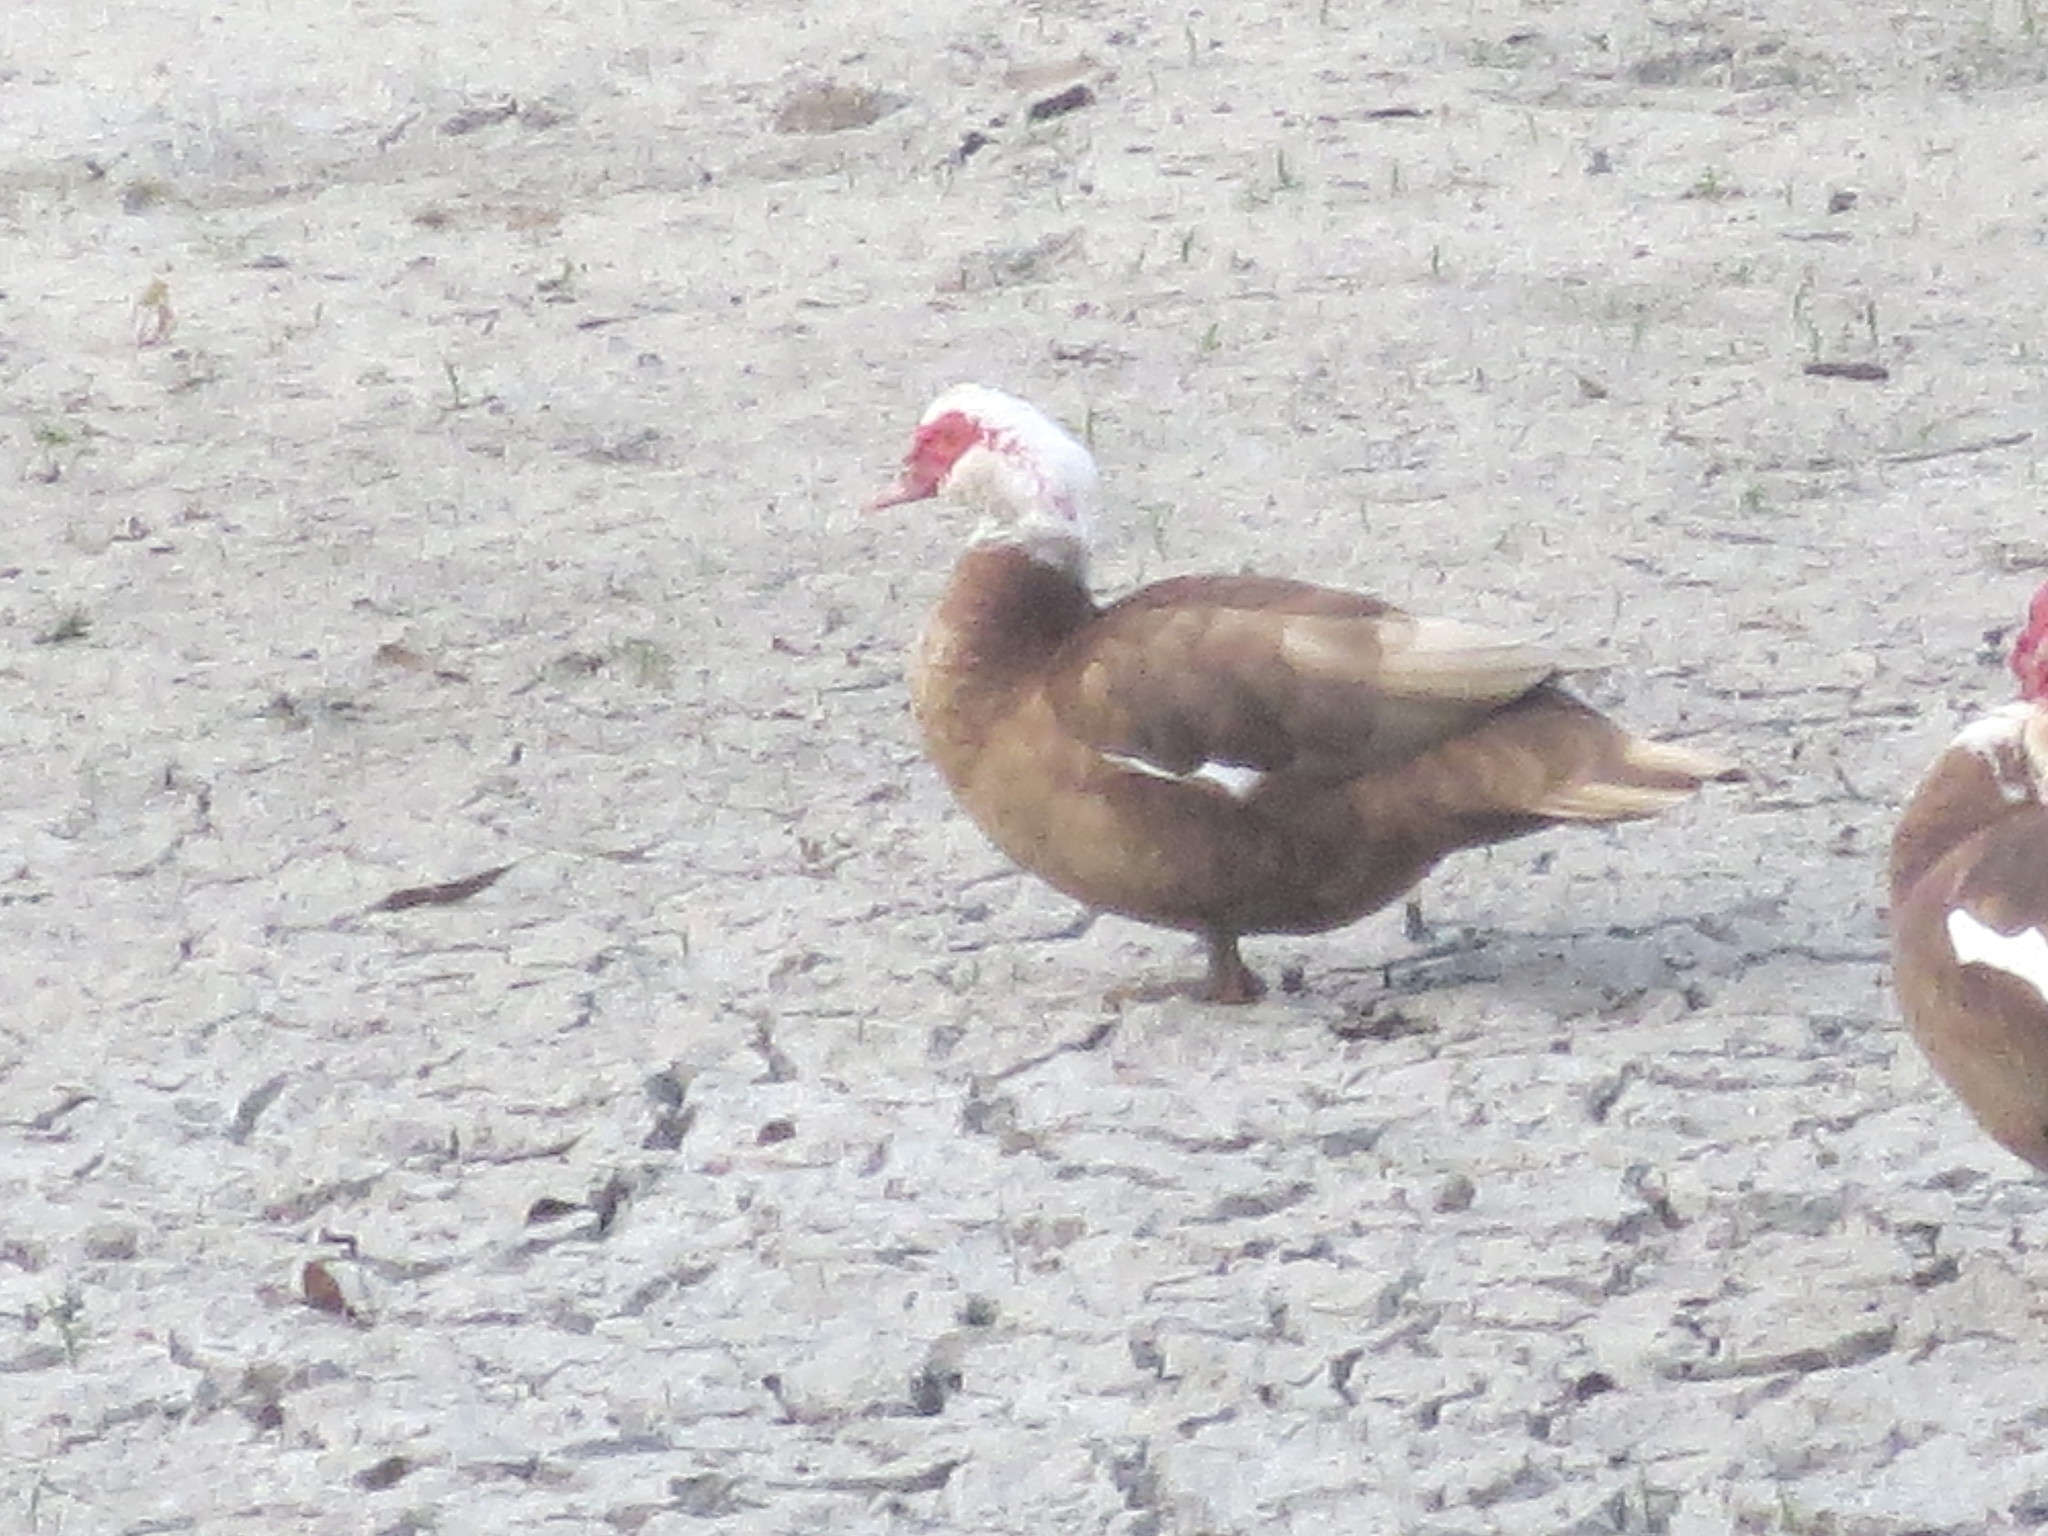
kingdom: Animalia
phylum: Chordata
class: Aves
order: Anseriformes
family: Anatidae
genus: Cairina
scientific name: Cairina moschata
